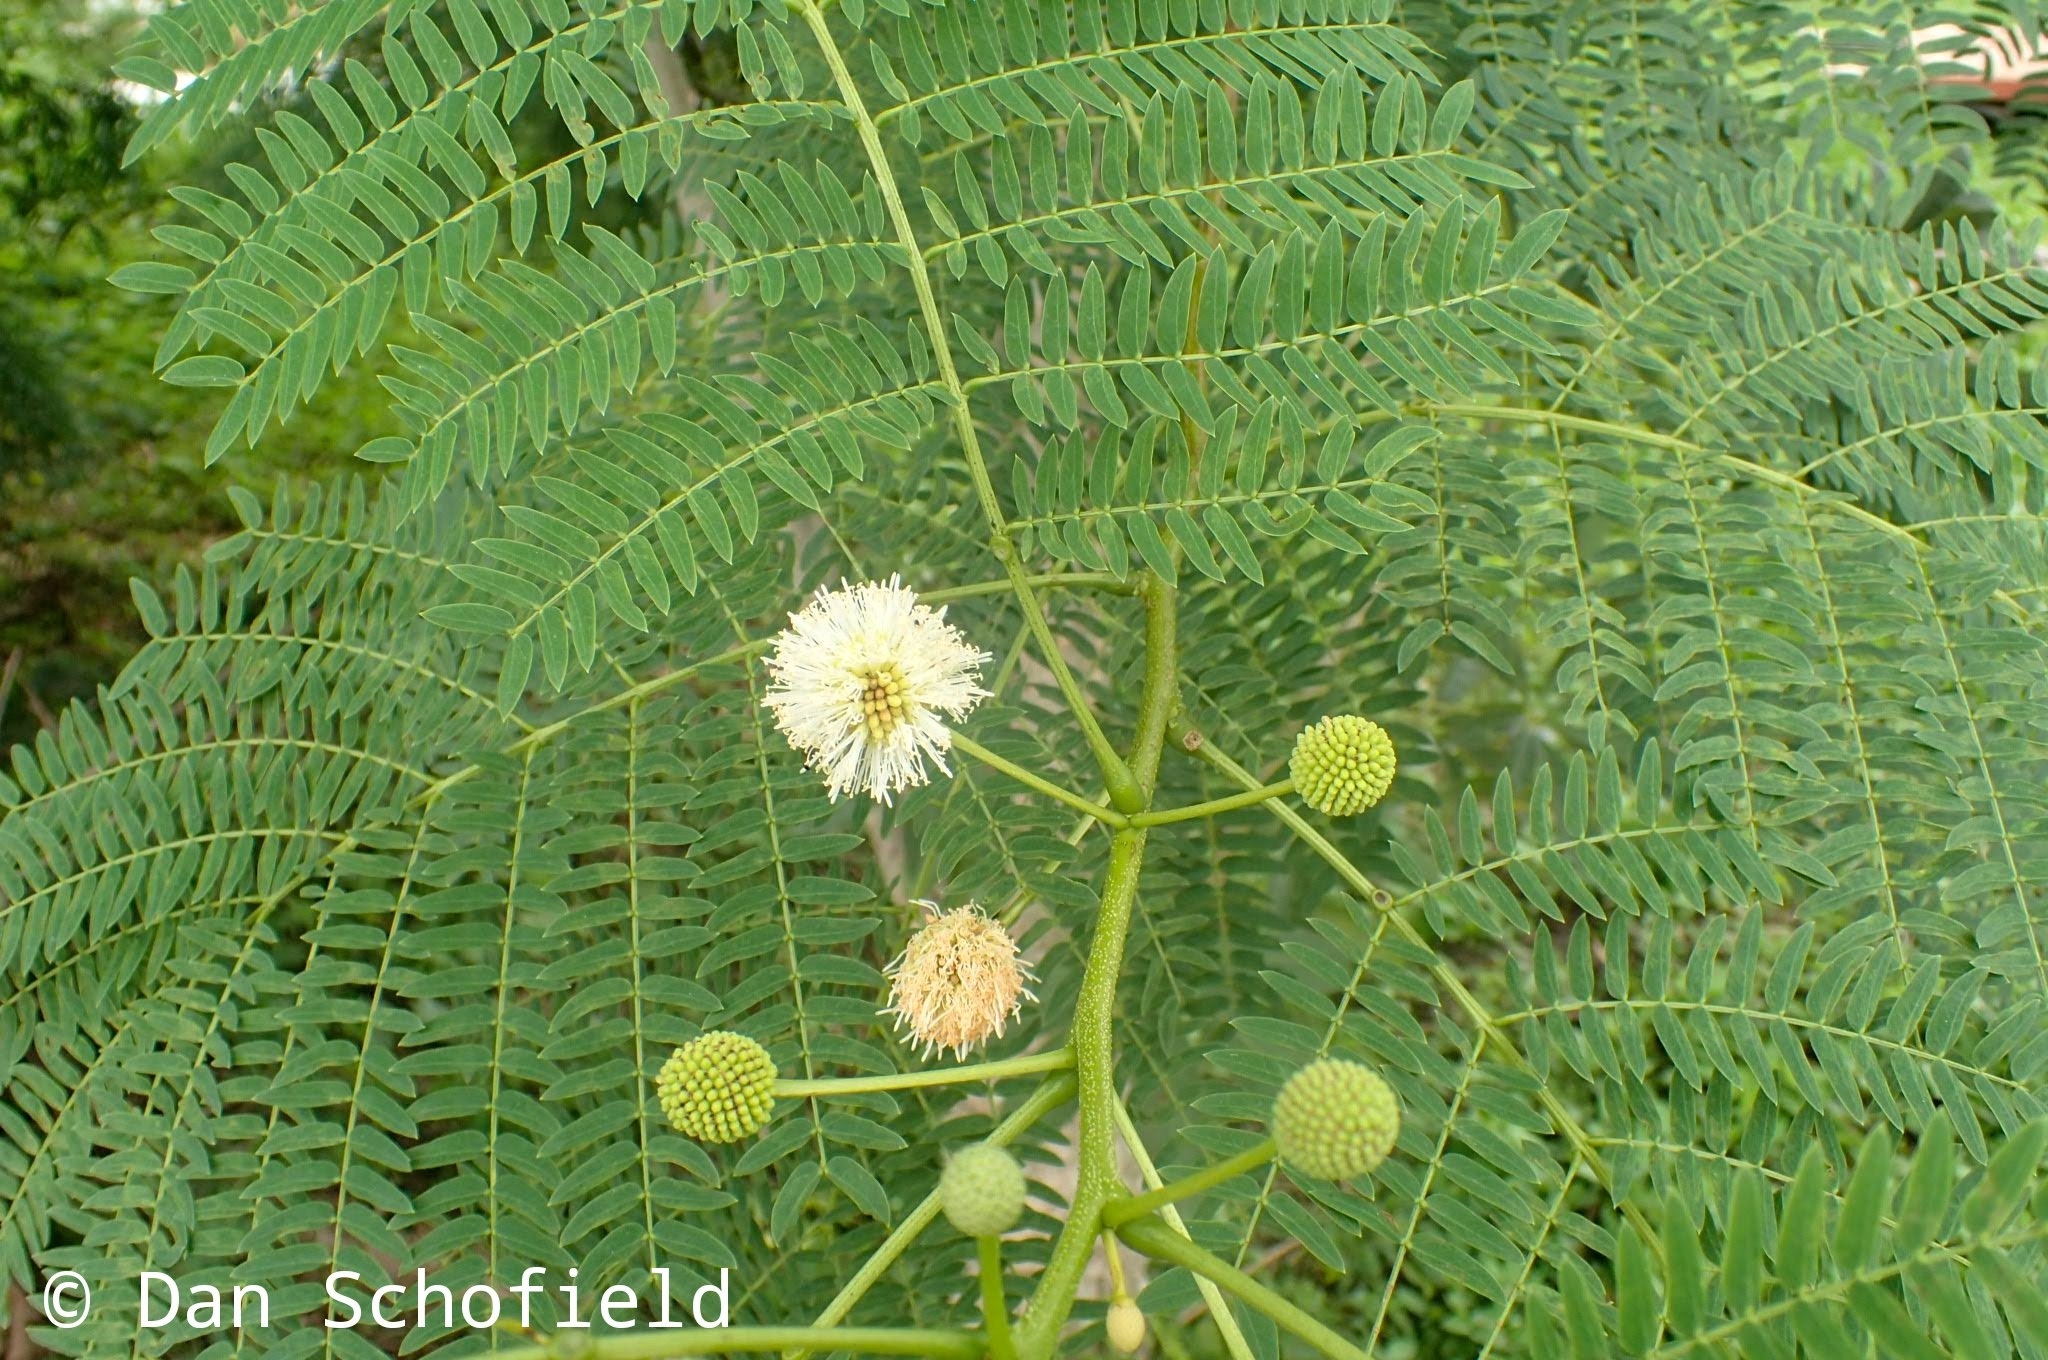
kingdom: Plantae
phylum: Tracheophyta
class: Magnoliopsida
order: Fabales
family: Fabaceae
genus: Leucaena
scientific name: Leucaena leucocephala
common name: White leadtree
